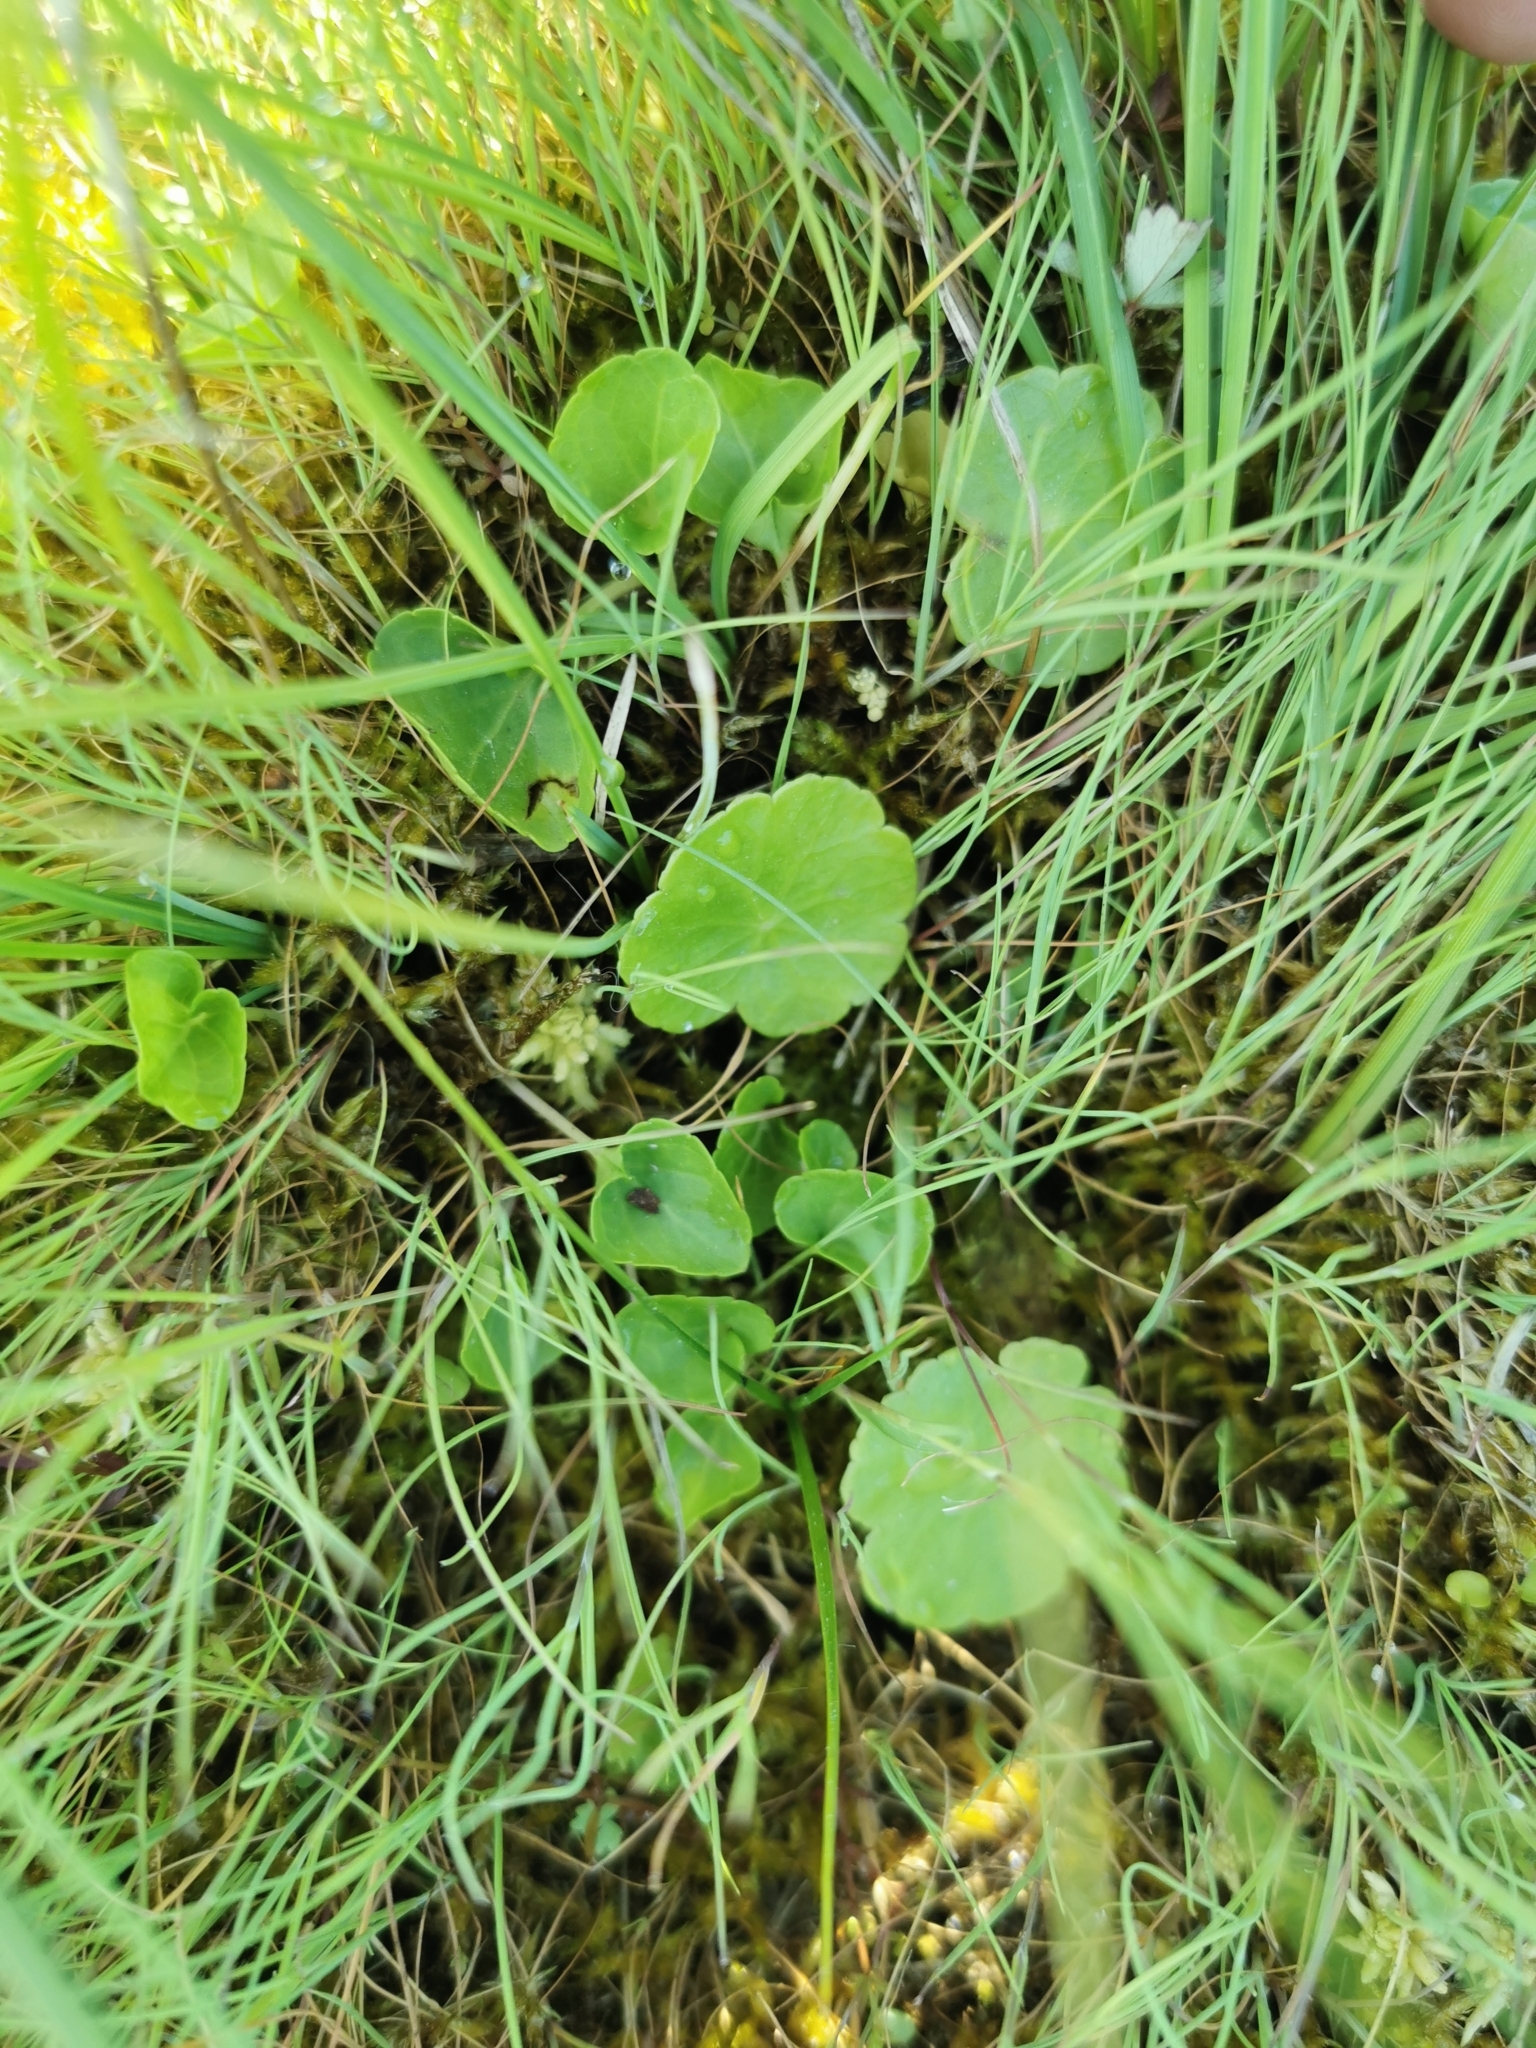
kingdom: Plantae
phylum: Tracheophyta
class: Magnoliopsida
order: Apiales
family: Araliaceae
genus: Hydrocotyle
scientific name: Hydrocotyle vulgaris
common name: Marsh pennywort
